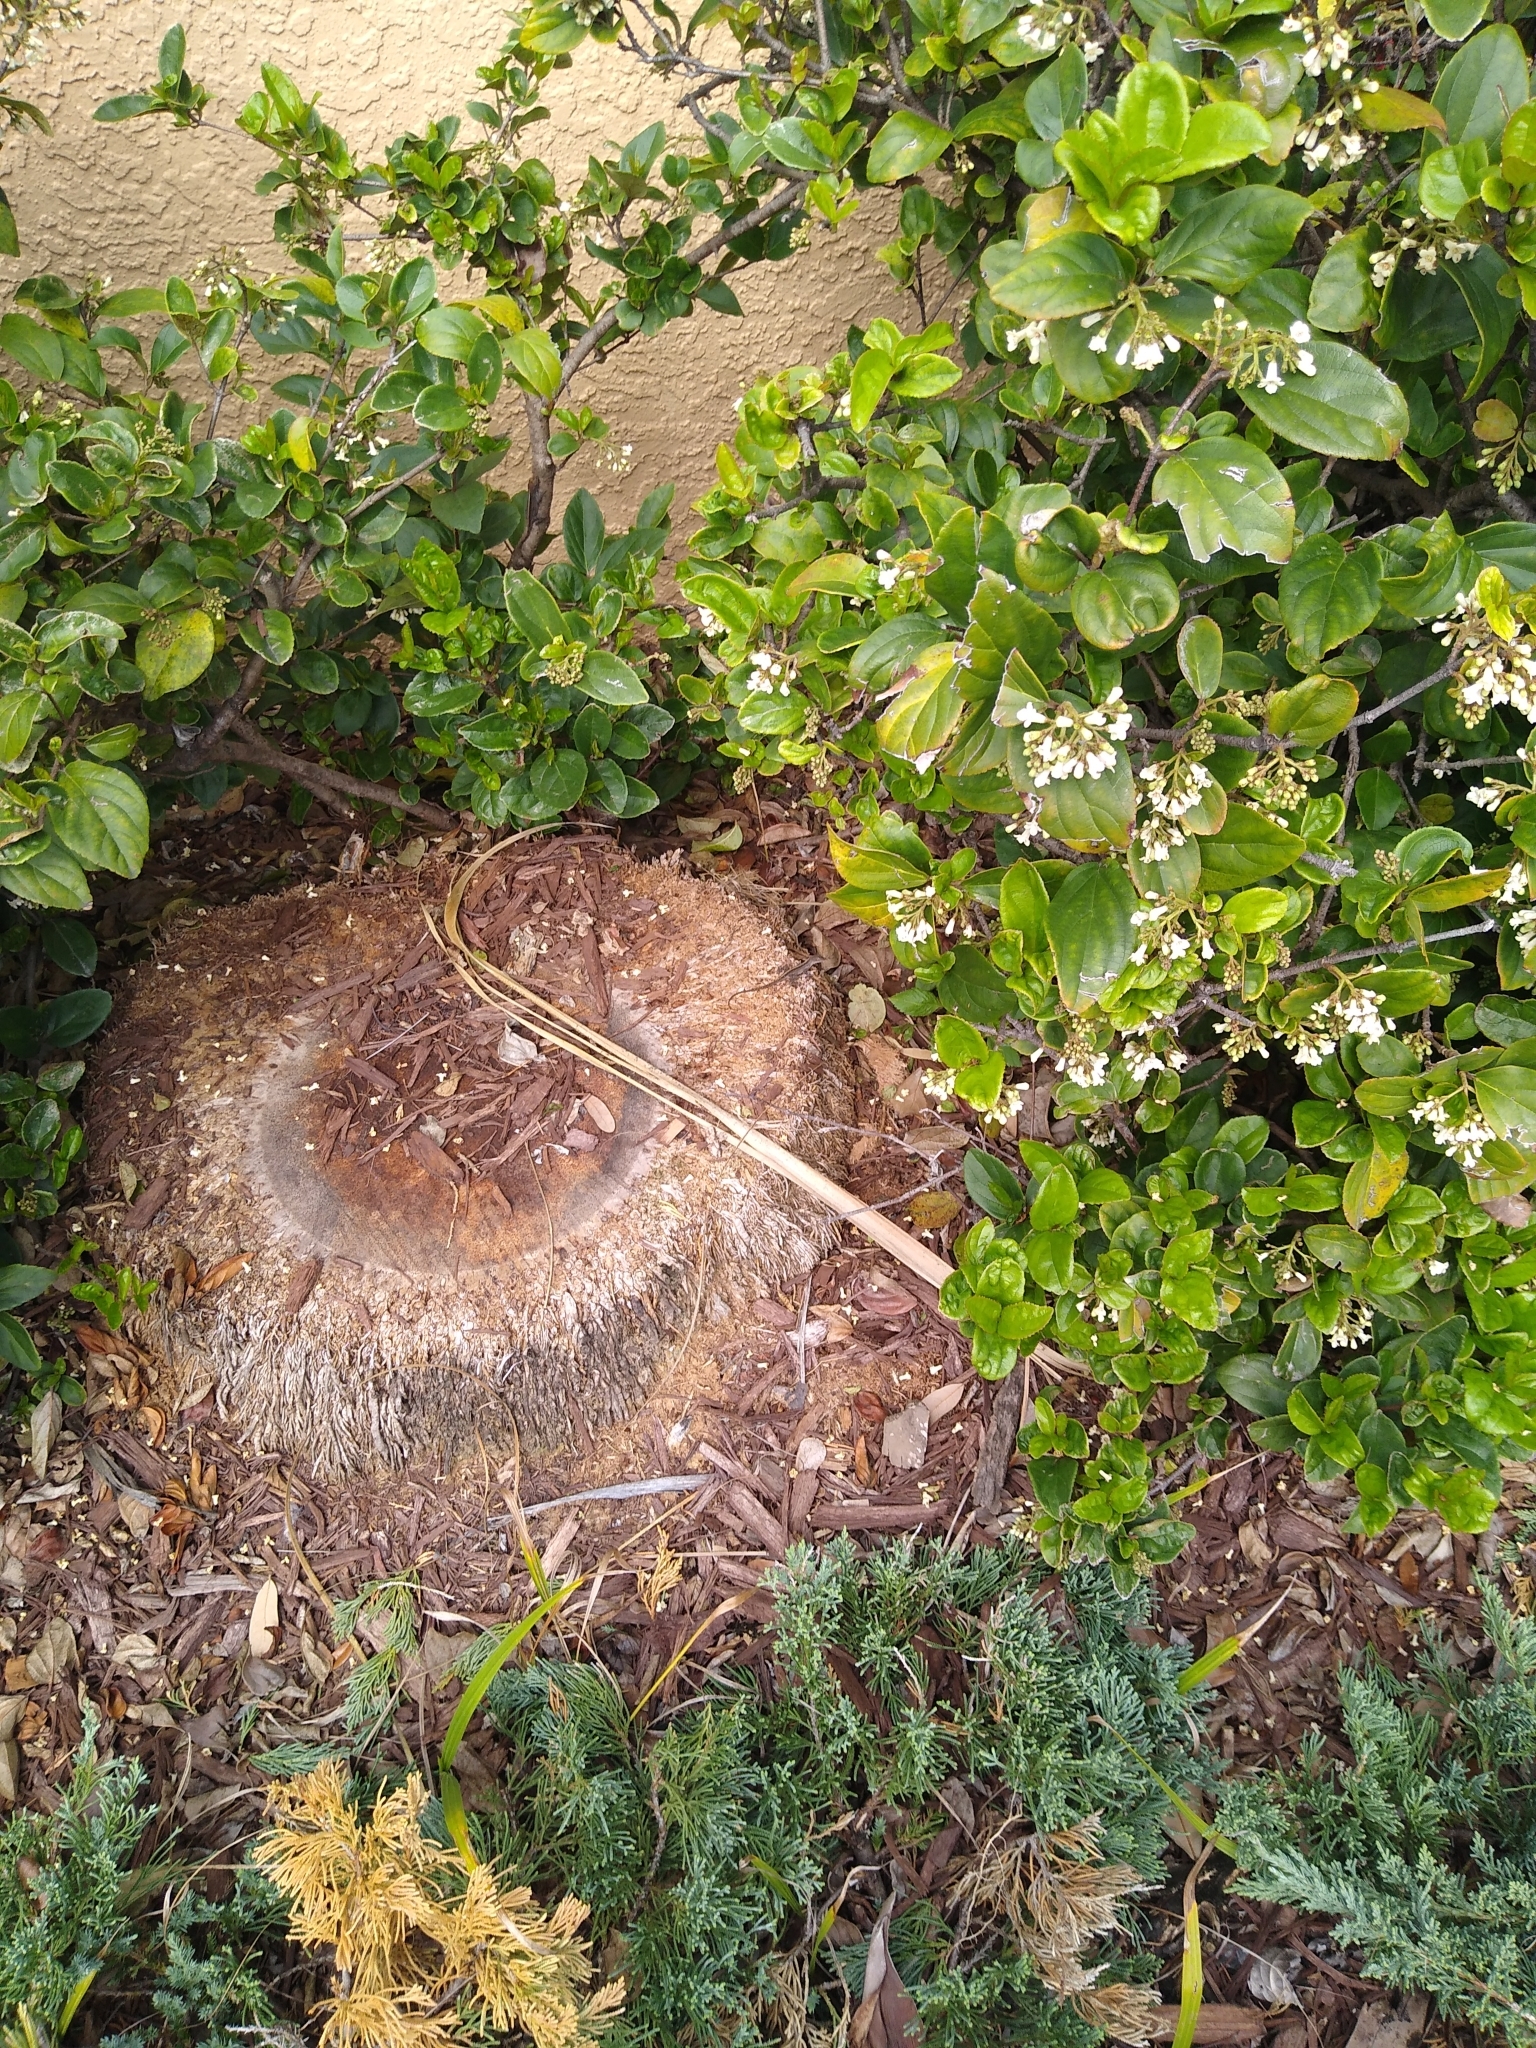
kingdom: Animalia
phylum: Chordata
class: Squamata
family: Dactyloidae
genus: Anolis
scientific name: Anolis sagrei
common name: Brown anole
